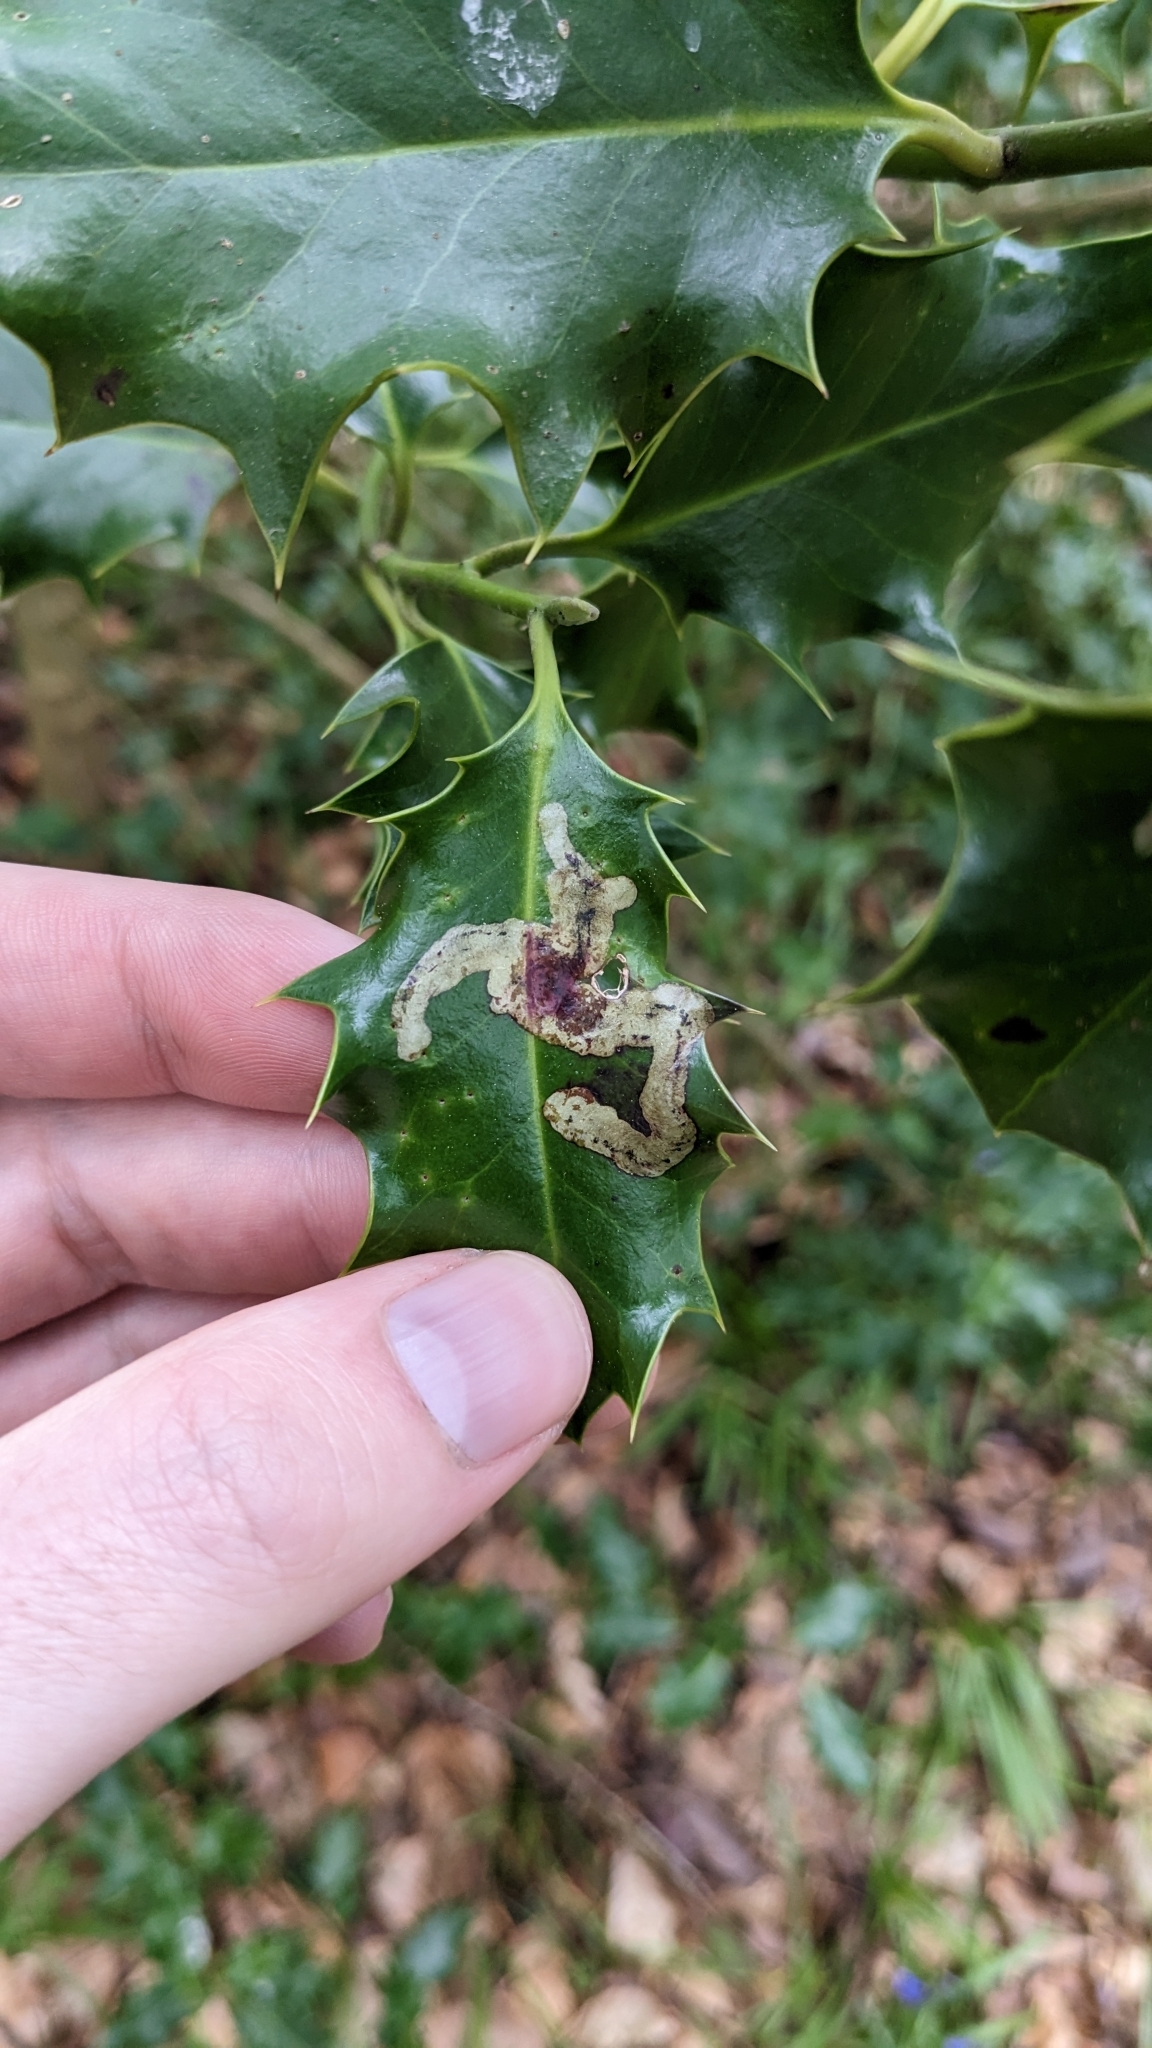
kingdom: Animalia
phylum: Arthropoda
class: Insecta
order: Diptera
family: Agromyzidae
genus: Phytomyza
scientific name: Phytomyza ilicis
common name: Holly leafminer
